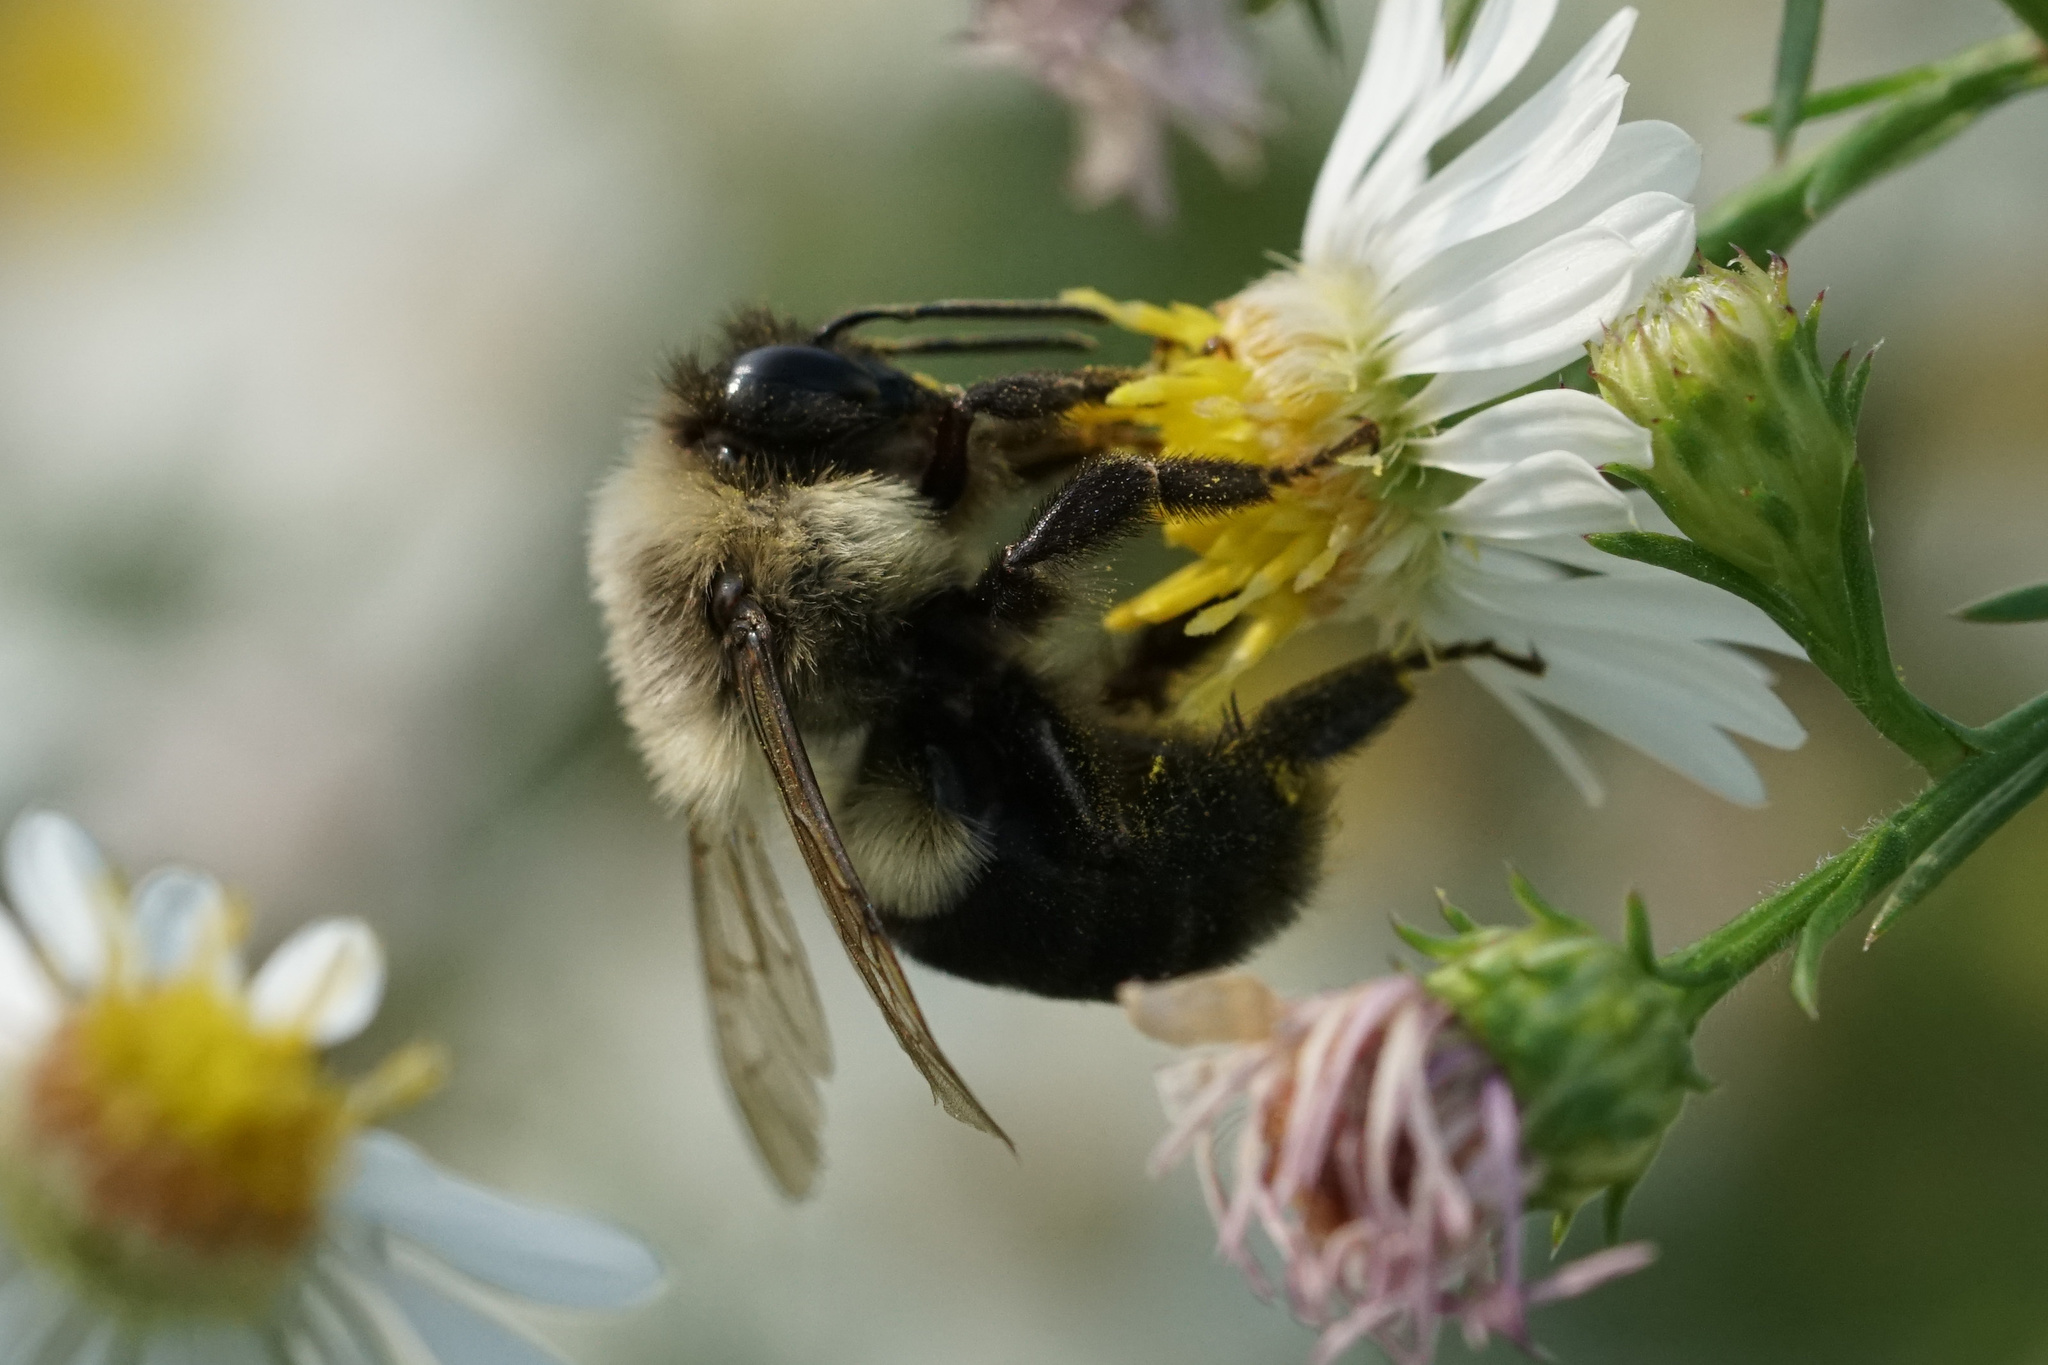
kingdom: Animalia
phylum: Arthropoda
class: Insecta
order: Hymenoptera
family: Apidae
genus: Bombus
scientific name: Bombus impatiens
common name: Common eastern bumble bee
